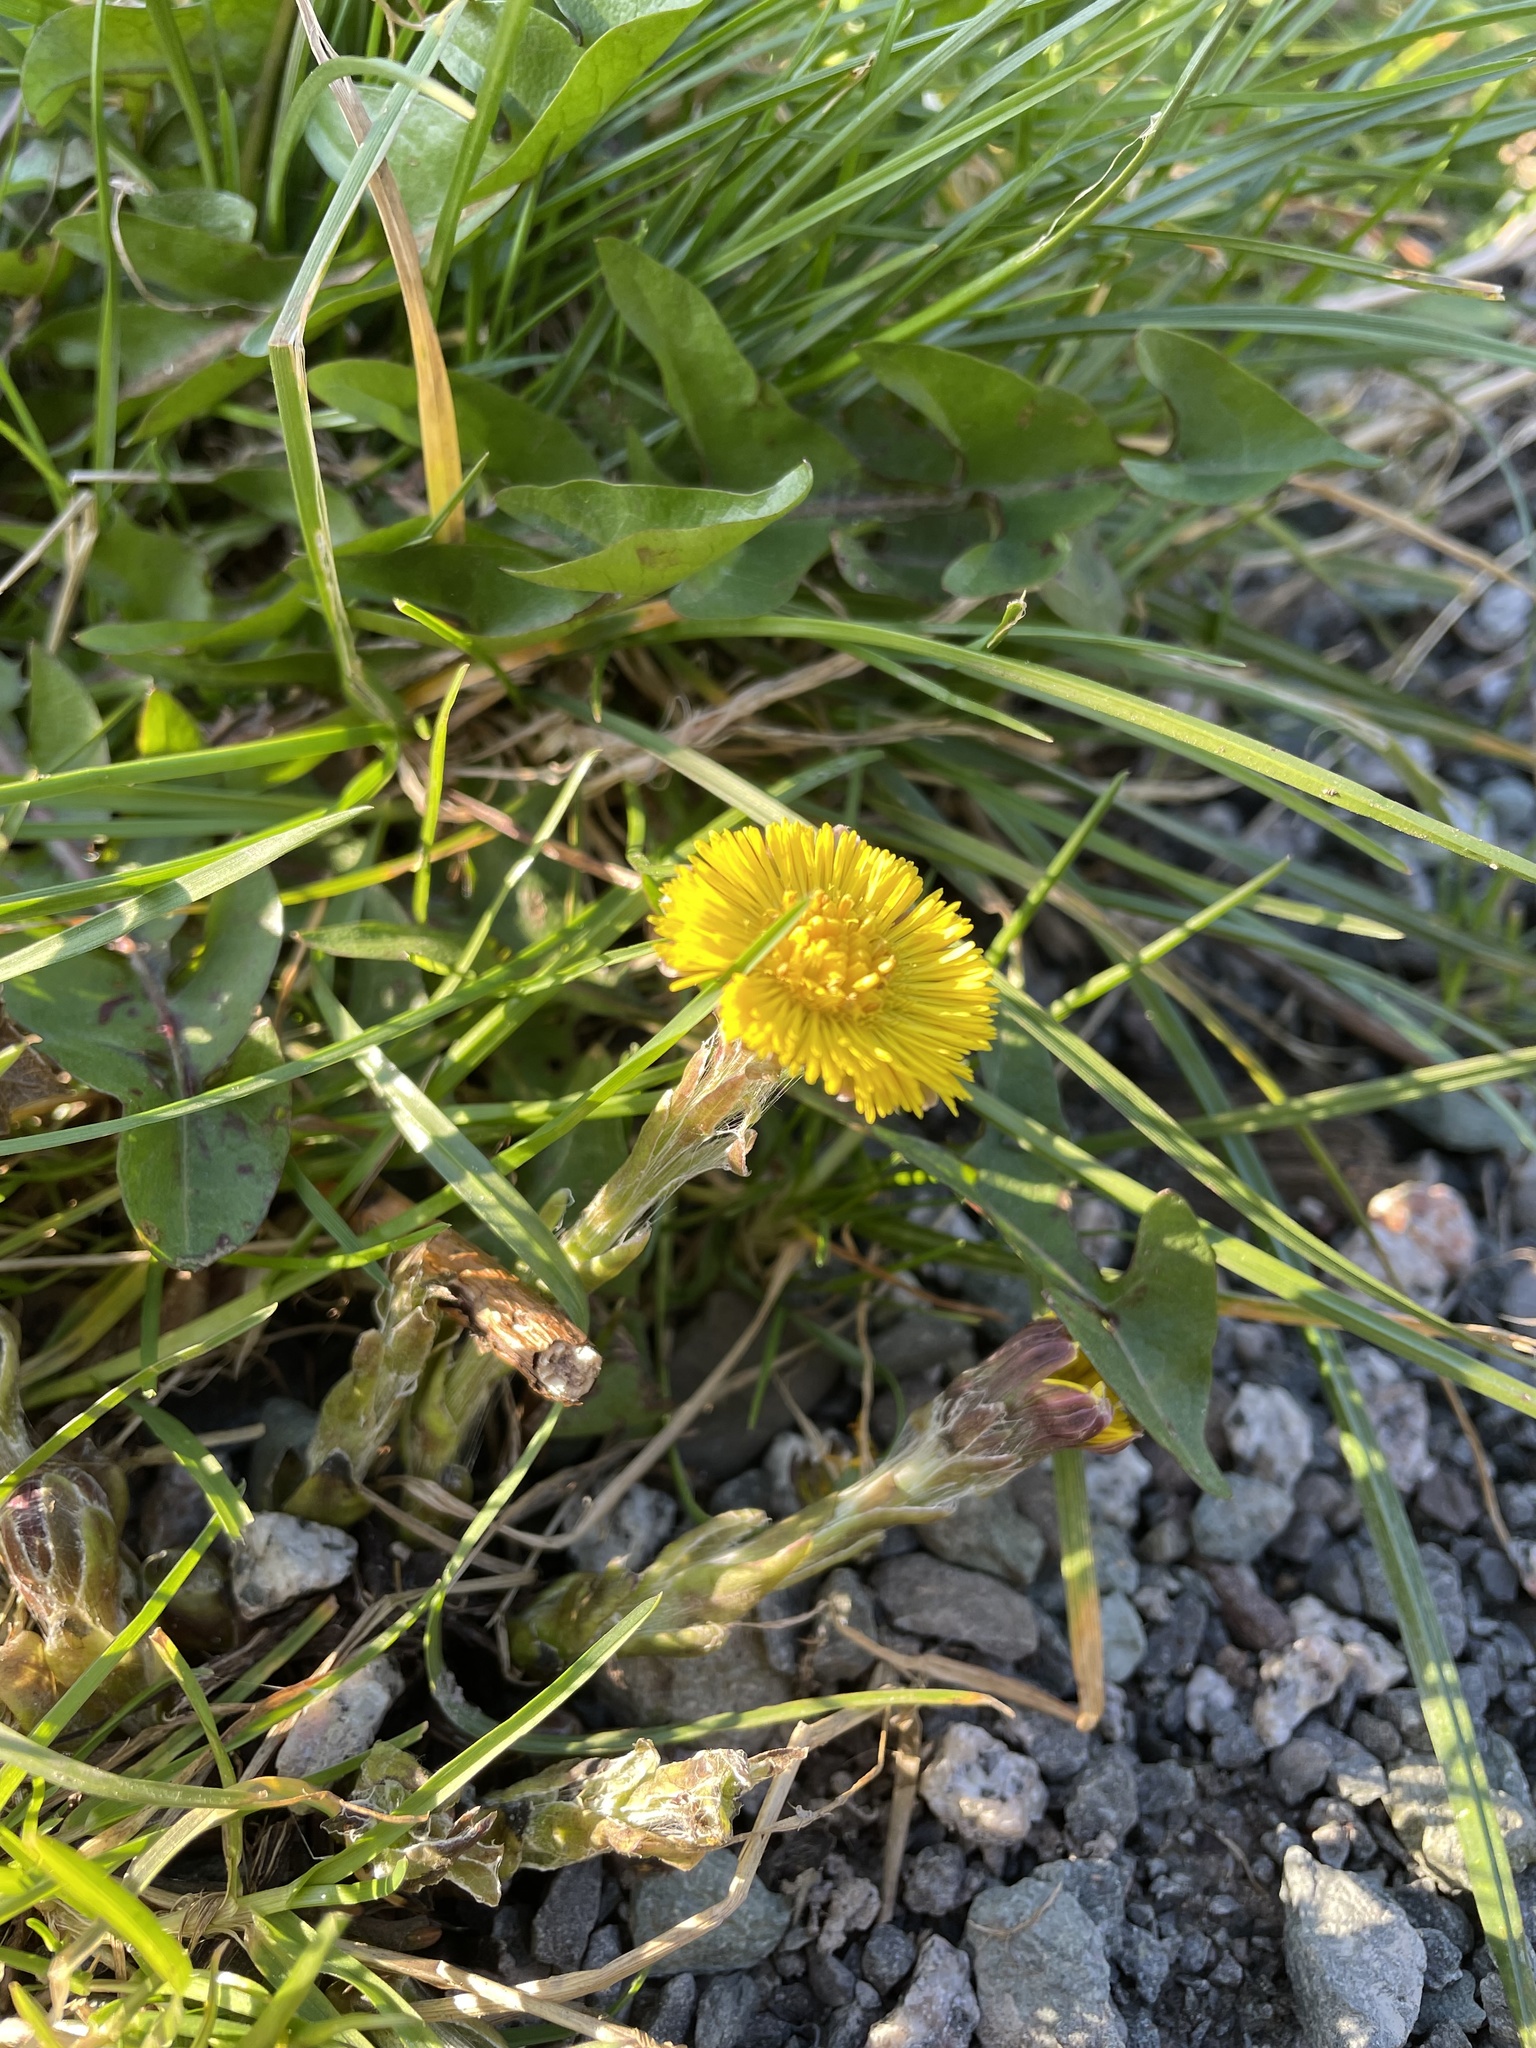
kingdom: Plantae
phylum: Tracheophyta
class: Magnoliopsida
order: Asterales
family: Asteraceae
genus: Tussilago
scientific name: Tussilago farfara
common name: Coltsfoot
